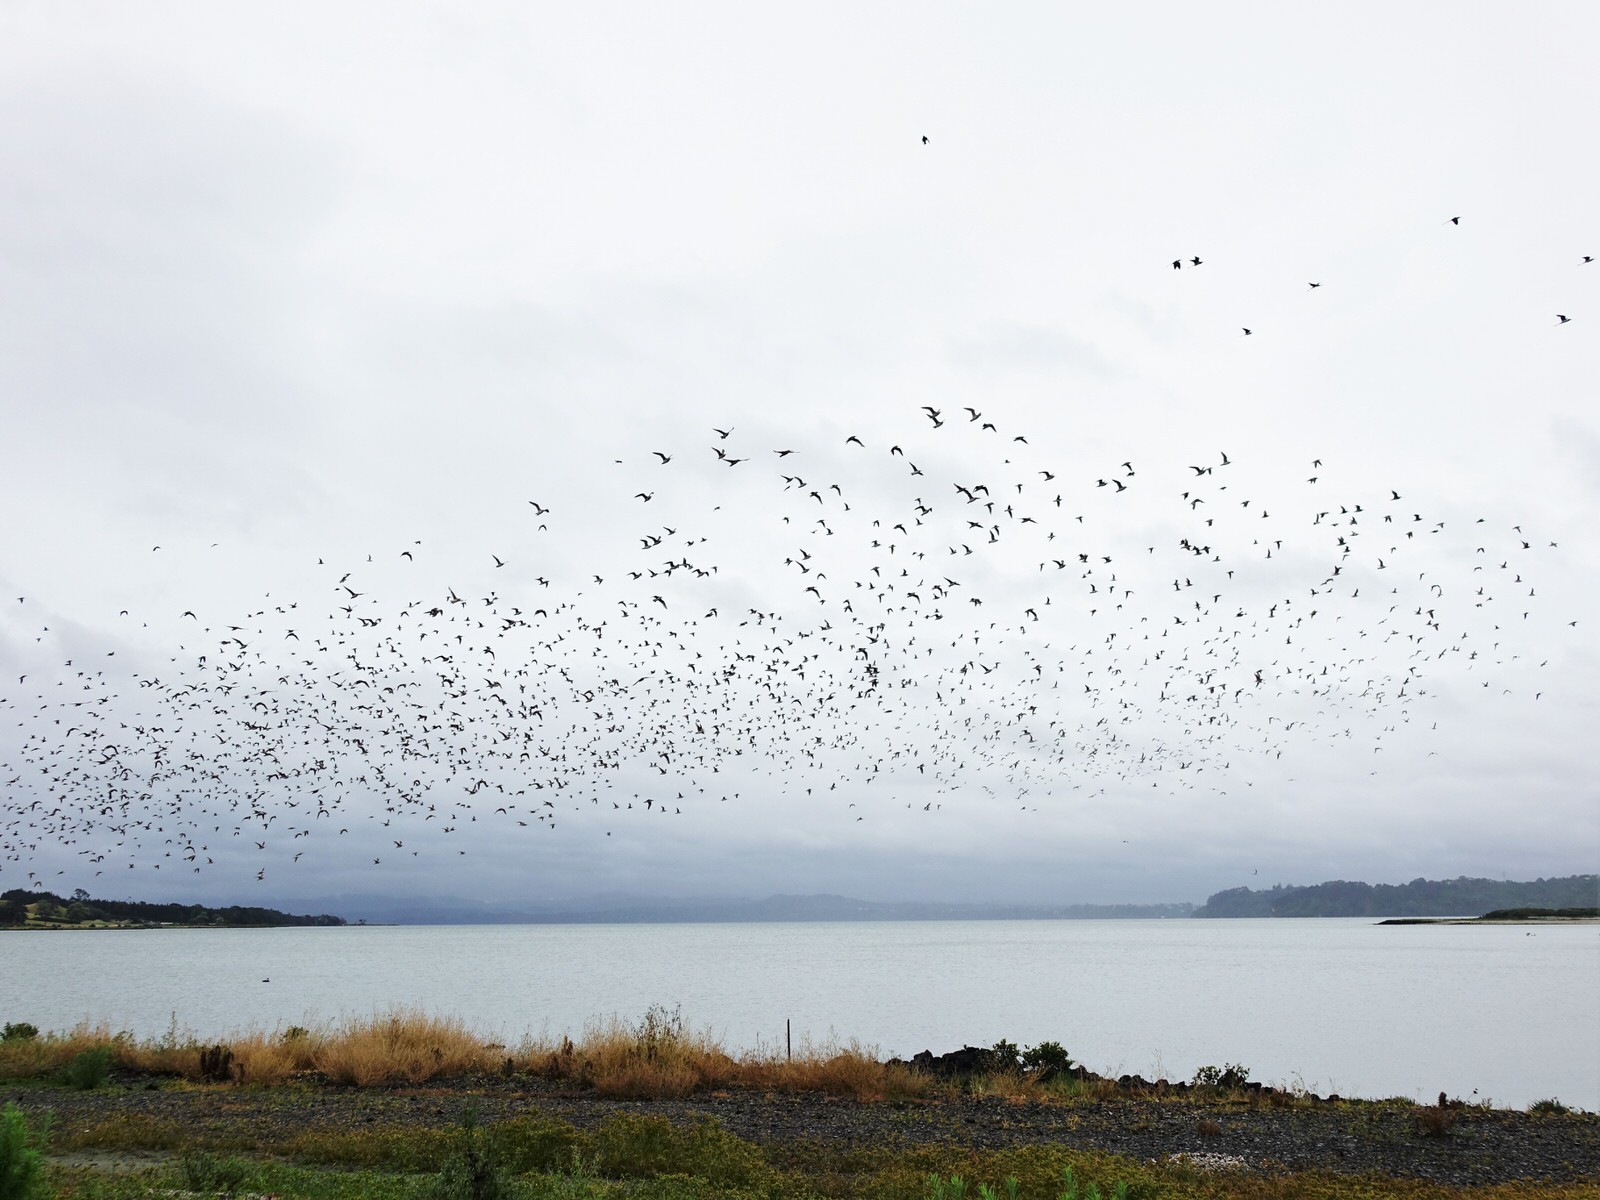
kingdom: Animalia
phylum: Chordata
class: Aves
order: Charadriiformes
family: Scolopacidae
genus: Limosa
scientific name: Limosa lapponica
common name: Bar-tailed godwit
